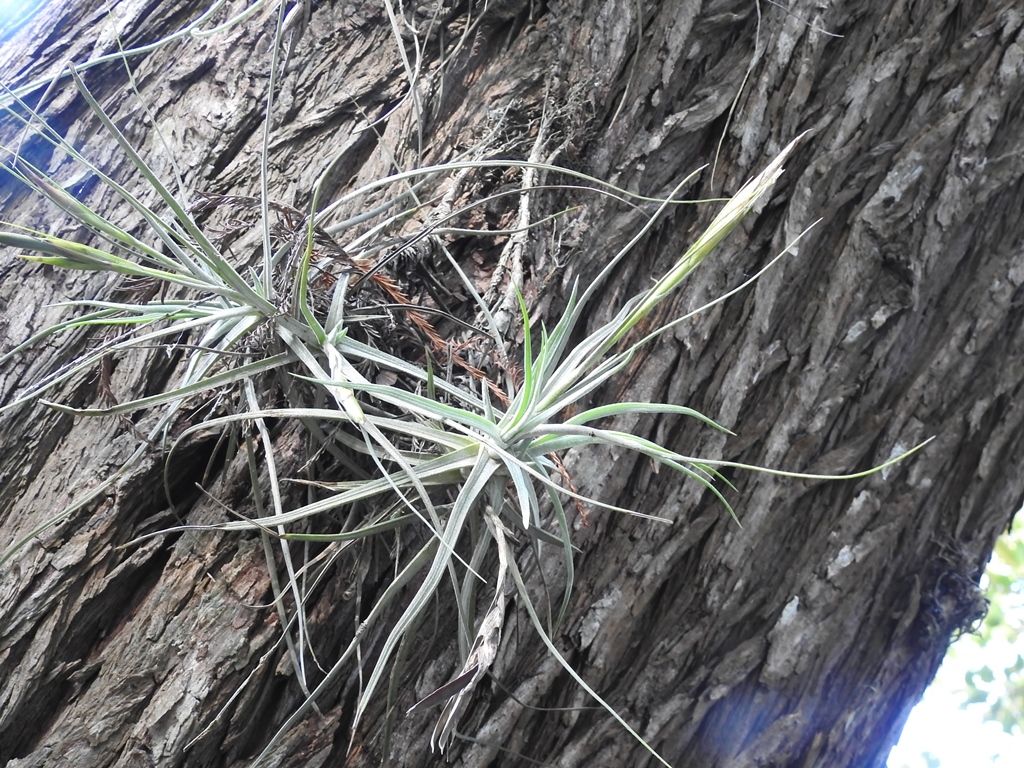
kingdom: Plantae
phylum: Tracheophyta
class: Liliopsida
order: Poales
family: Bromeliaceae
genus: Tillandsia
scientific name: Tillandsia schiedeana
